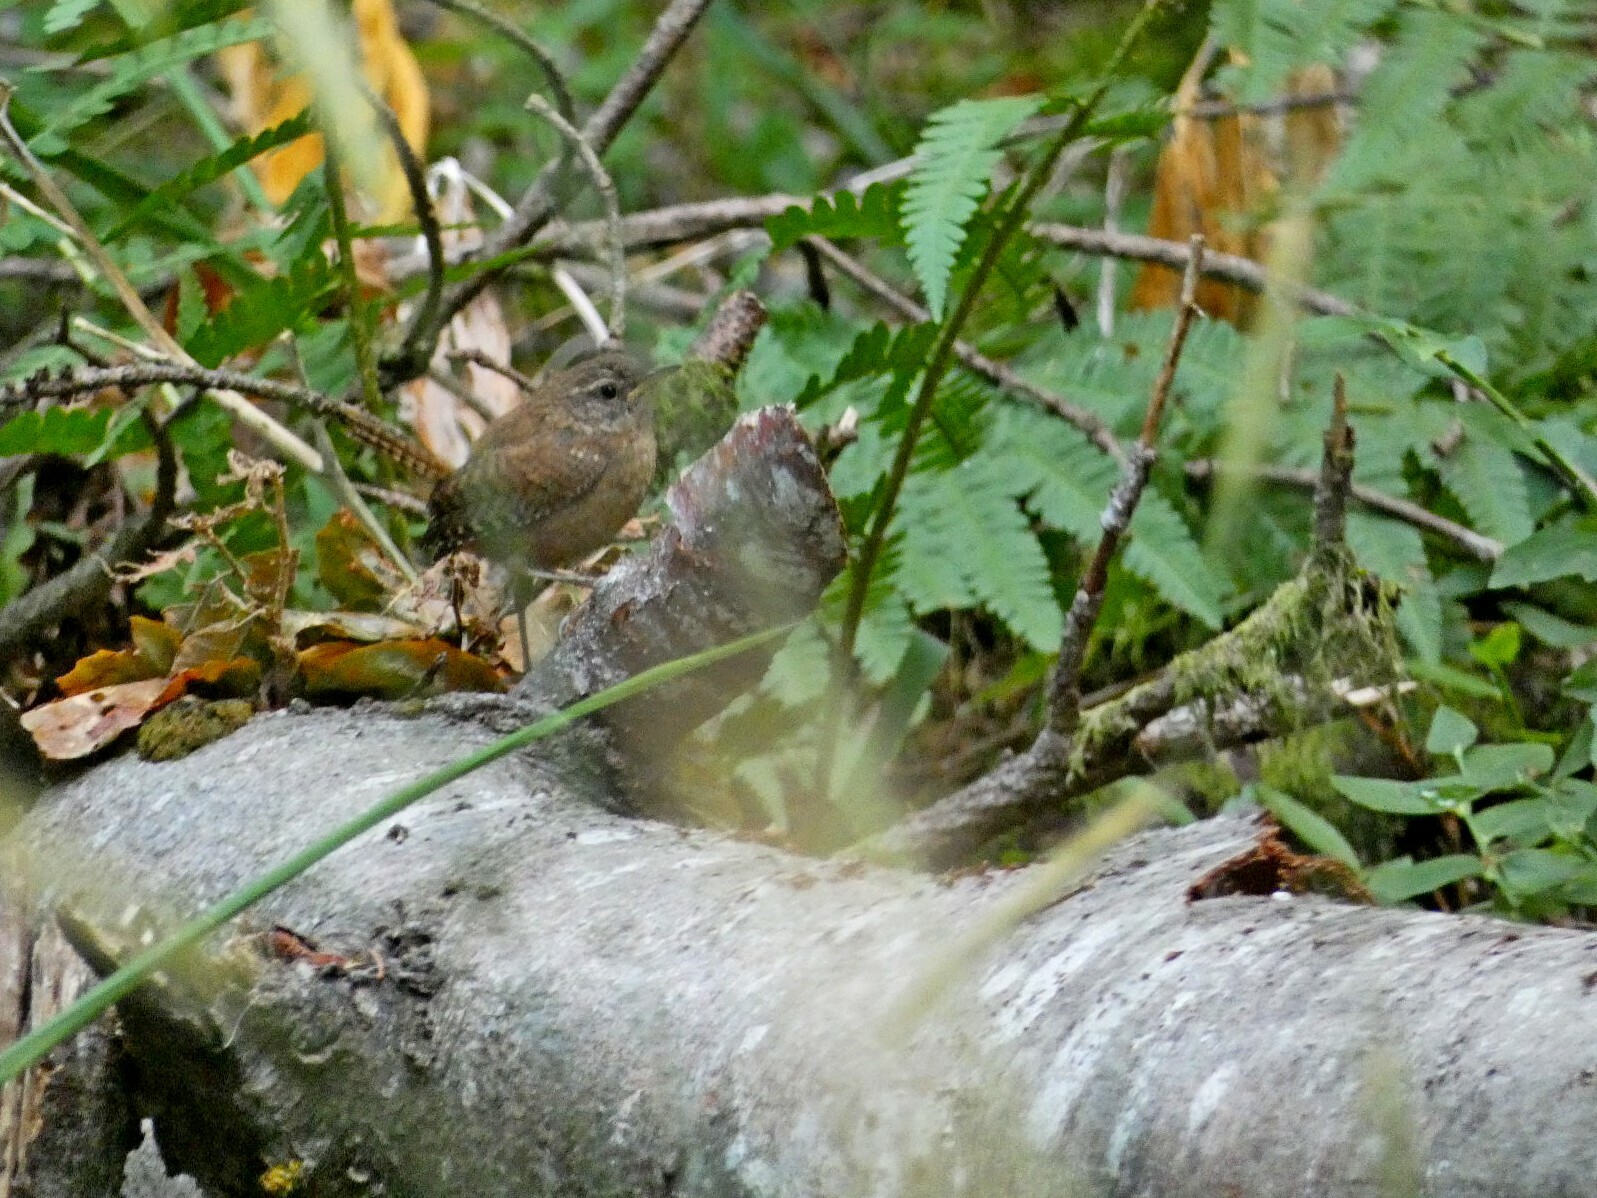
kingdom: Animalia
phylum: Chordata
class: Aves
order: Passeriformes
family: Troglodytidae
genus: Troglodytes
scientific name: Troglodytes troglodytes
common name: Eurasian wren
